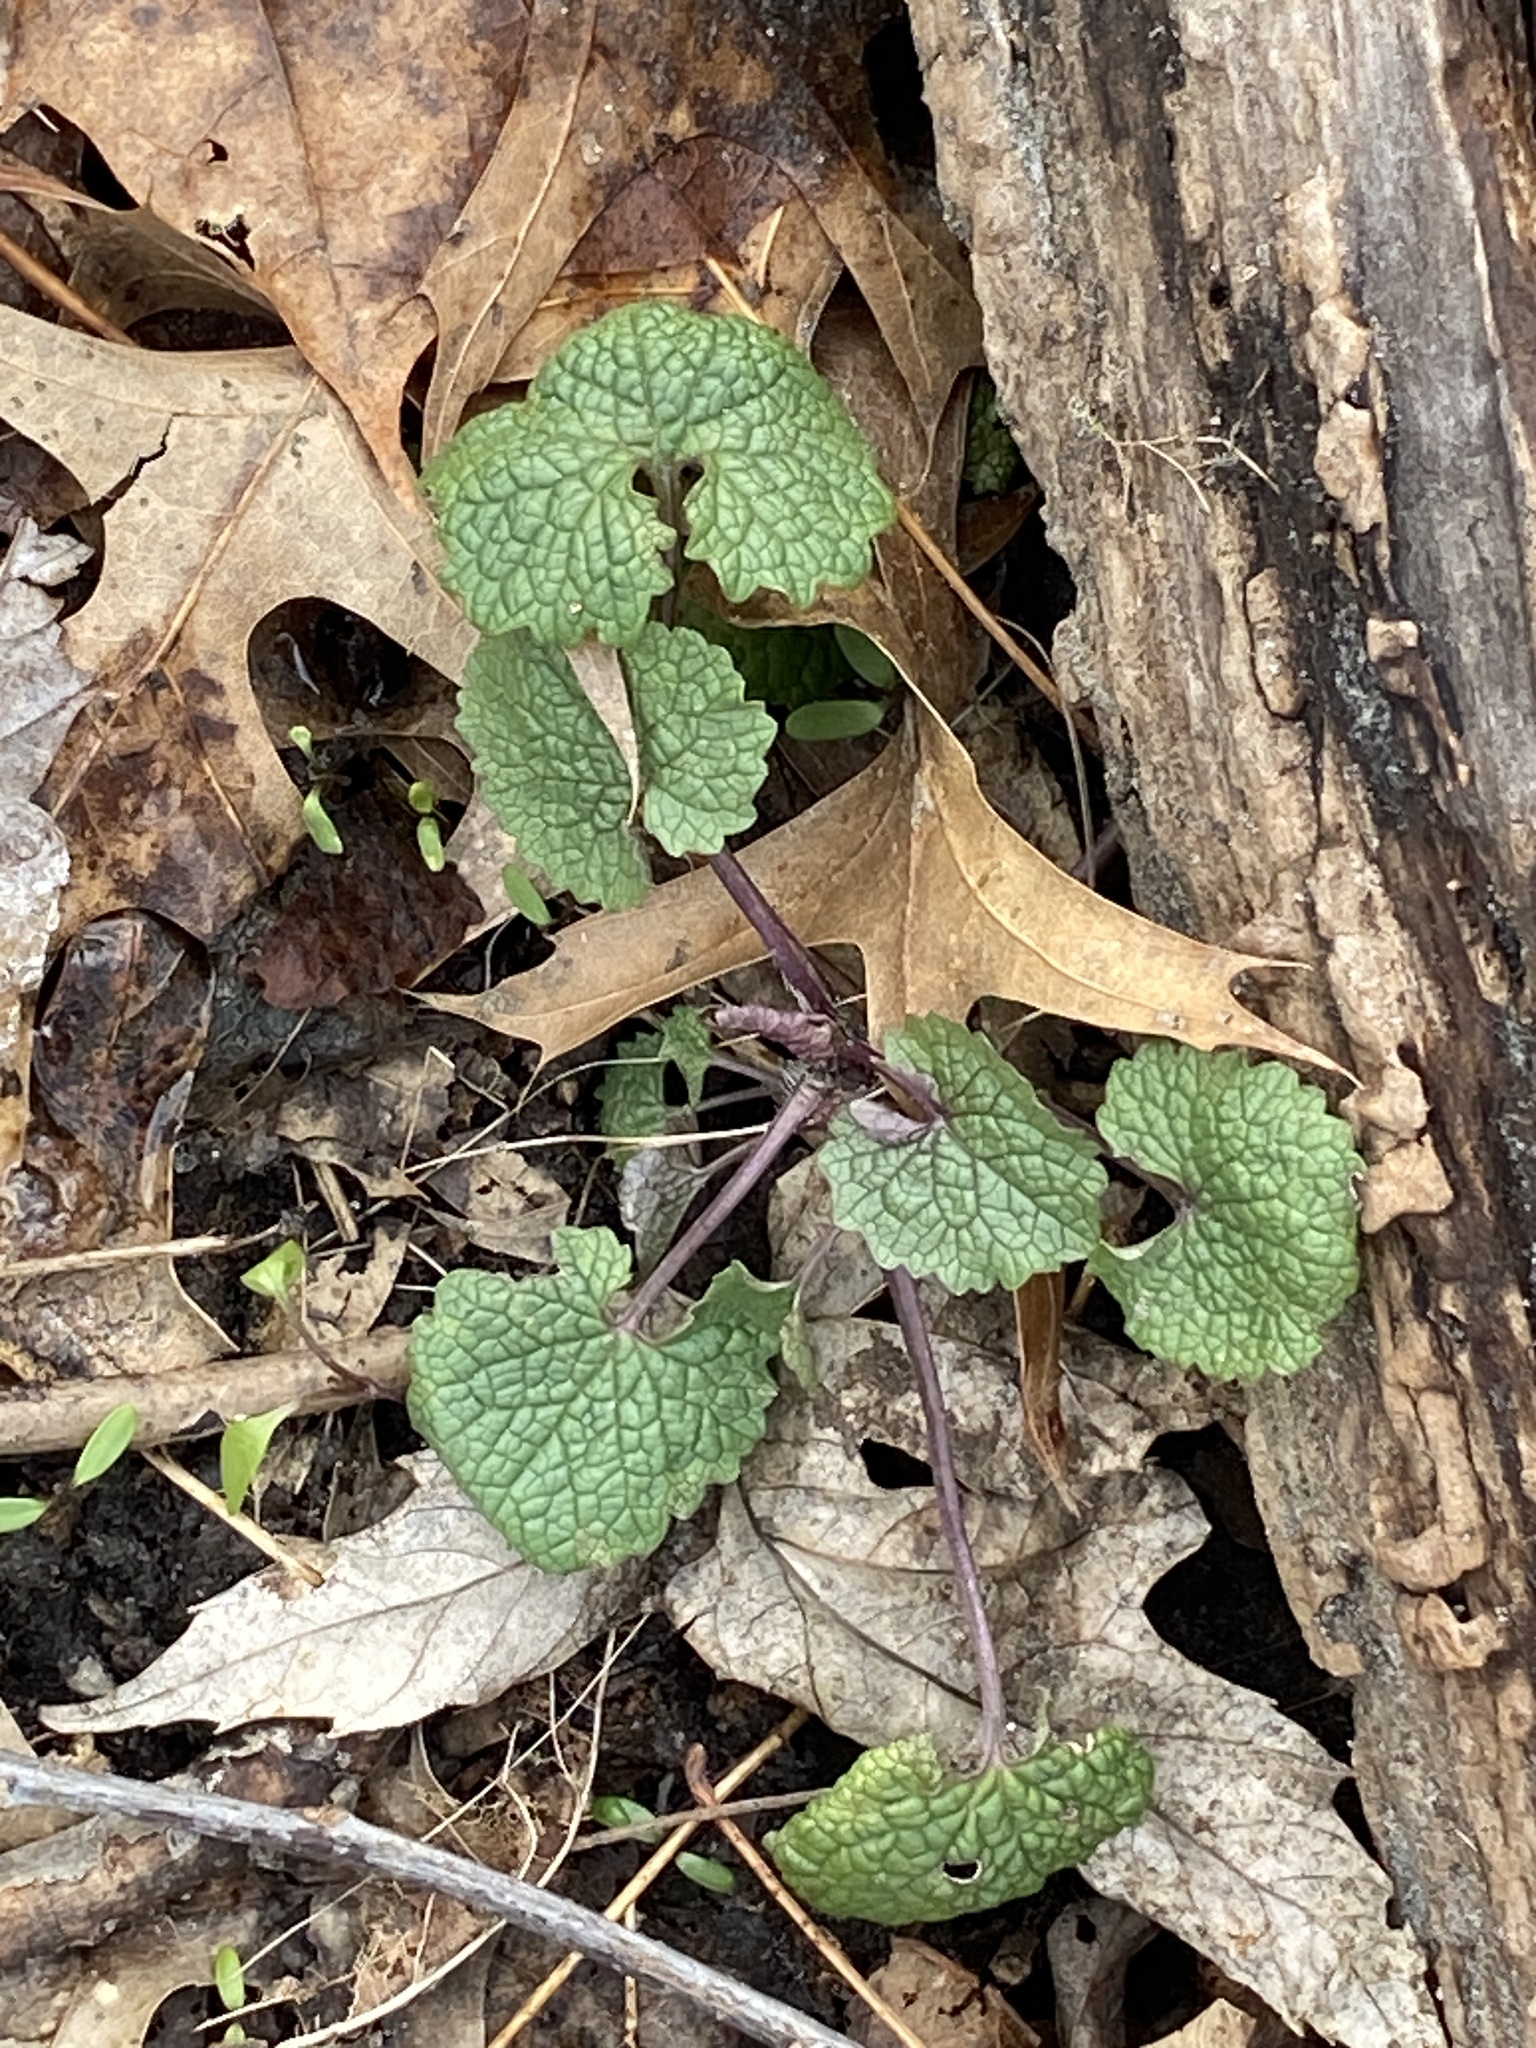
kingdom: Plantae
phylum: Tracheophyta
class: Magnoliopsida
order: Brassicales
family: Brassicaceae
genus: Alliaria
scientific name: Alliaria petiolata
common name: Garlic mustard
